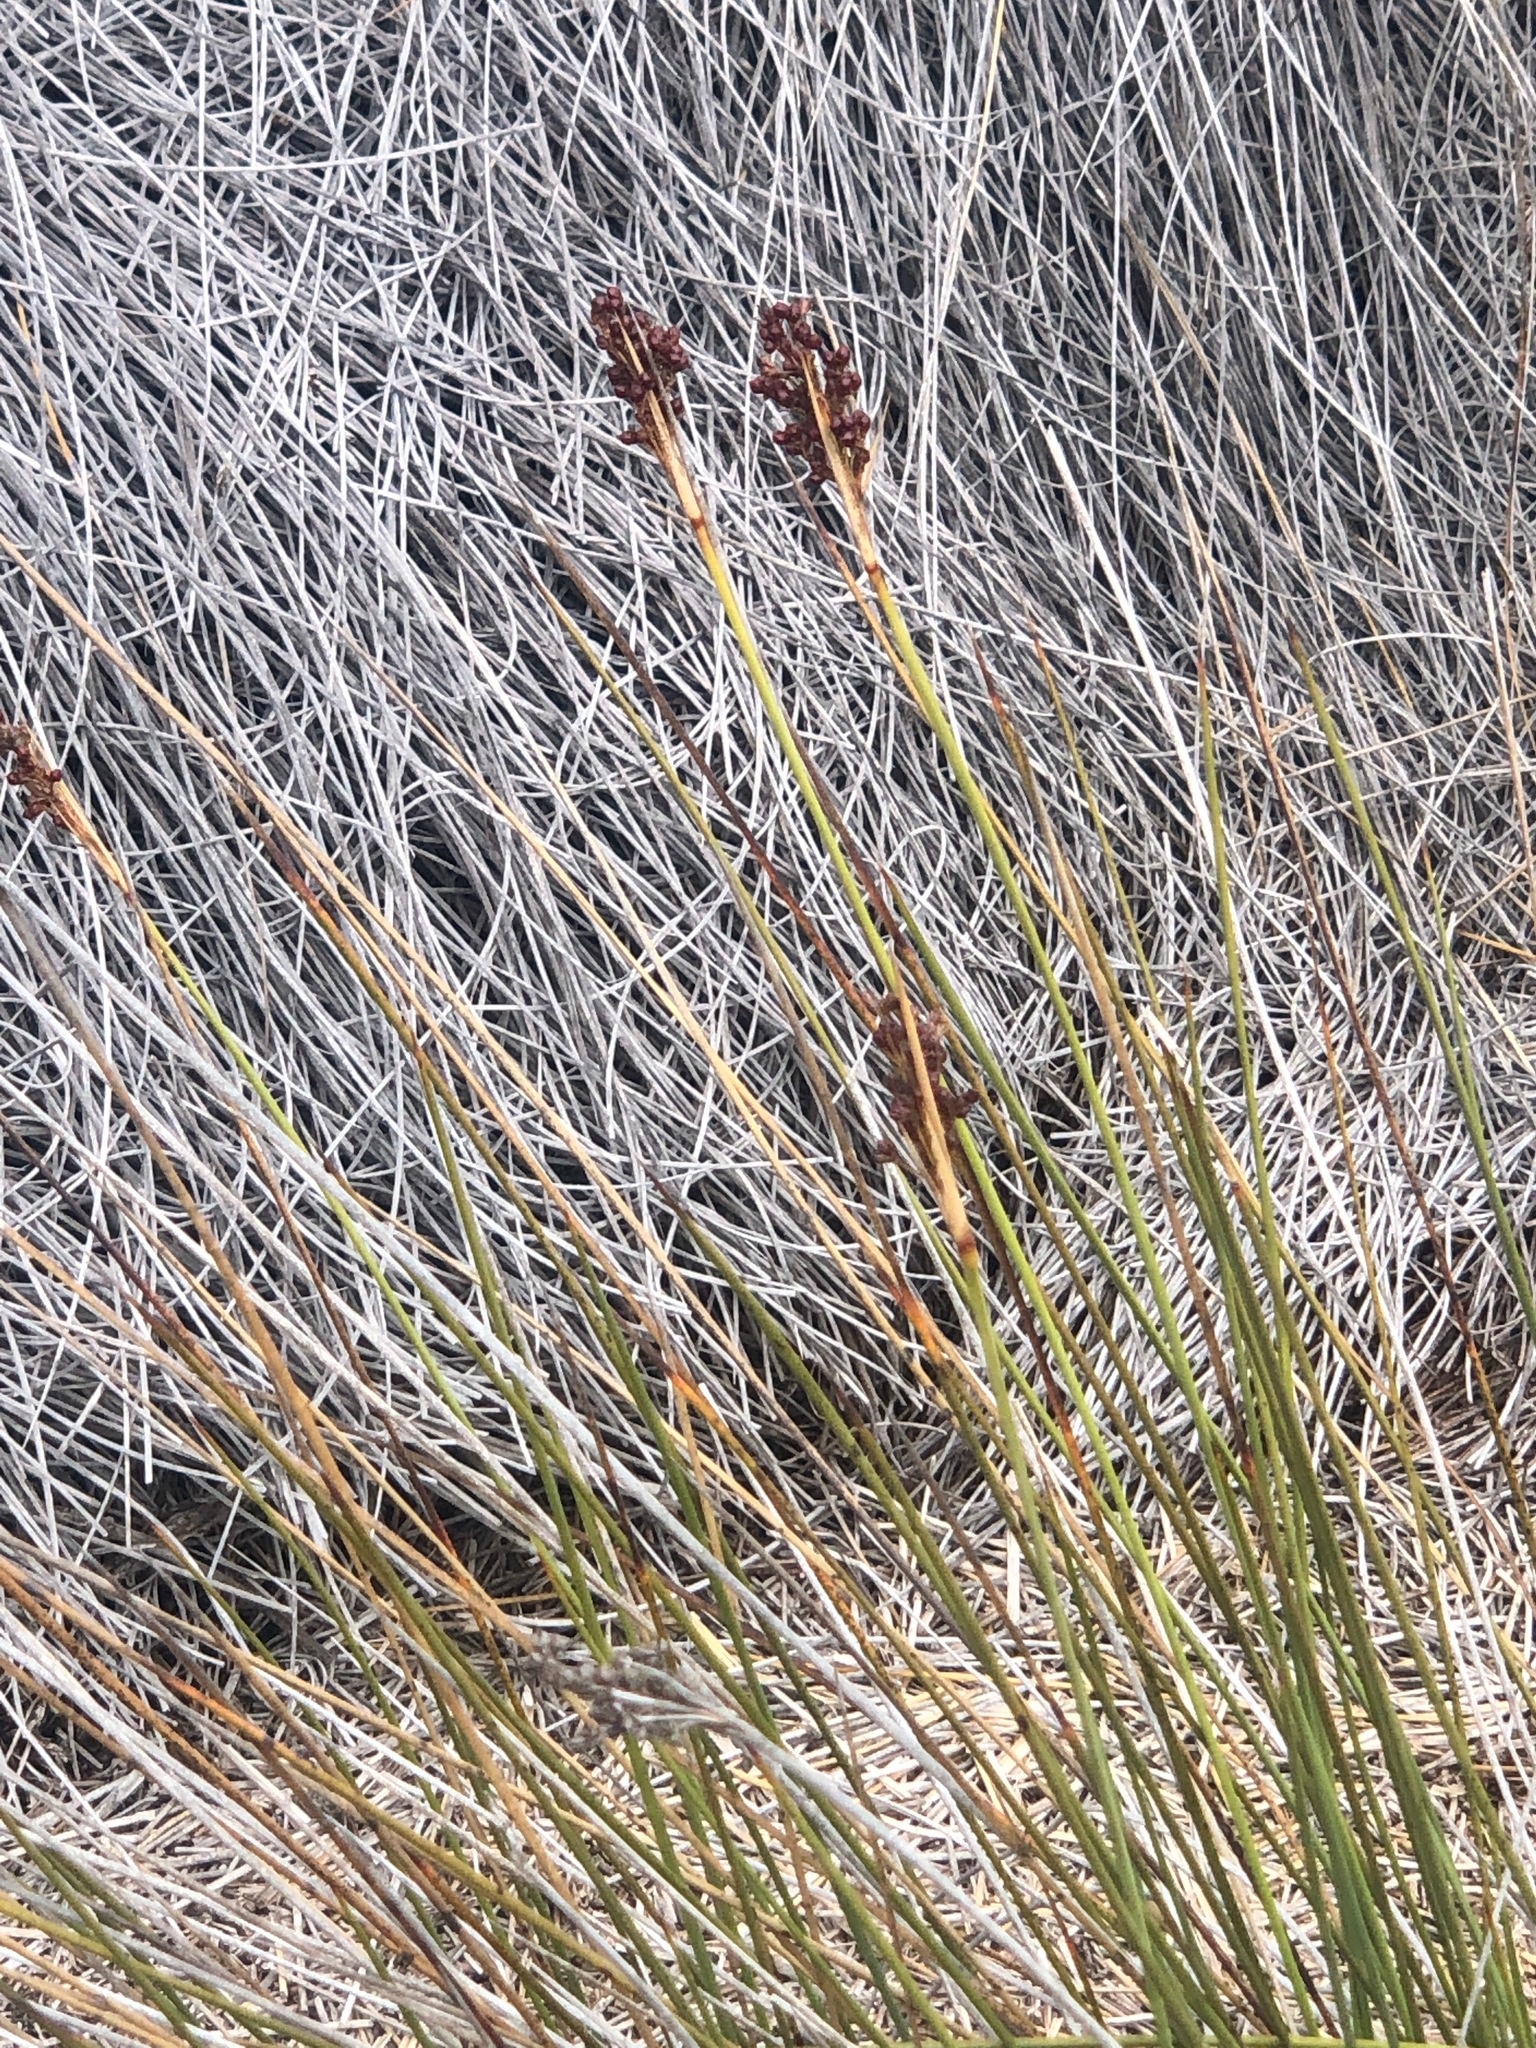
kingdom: Plantae
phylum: Tracheophyta
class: Liliopsida
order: Poales
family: Juncaceae
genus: Juncus
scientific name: Juncus acutus
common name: Sharp rush
